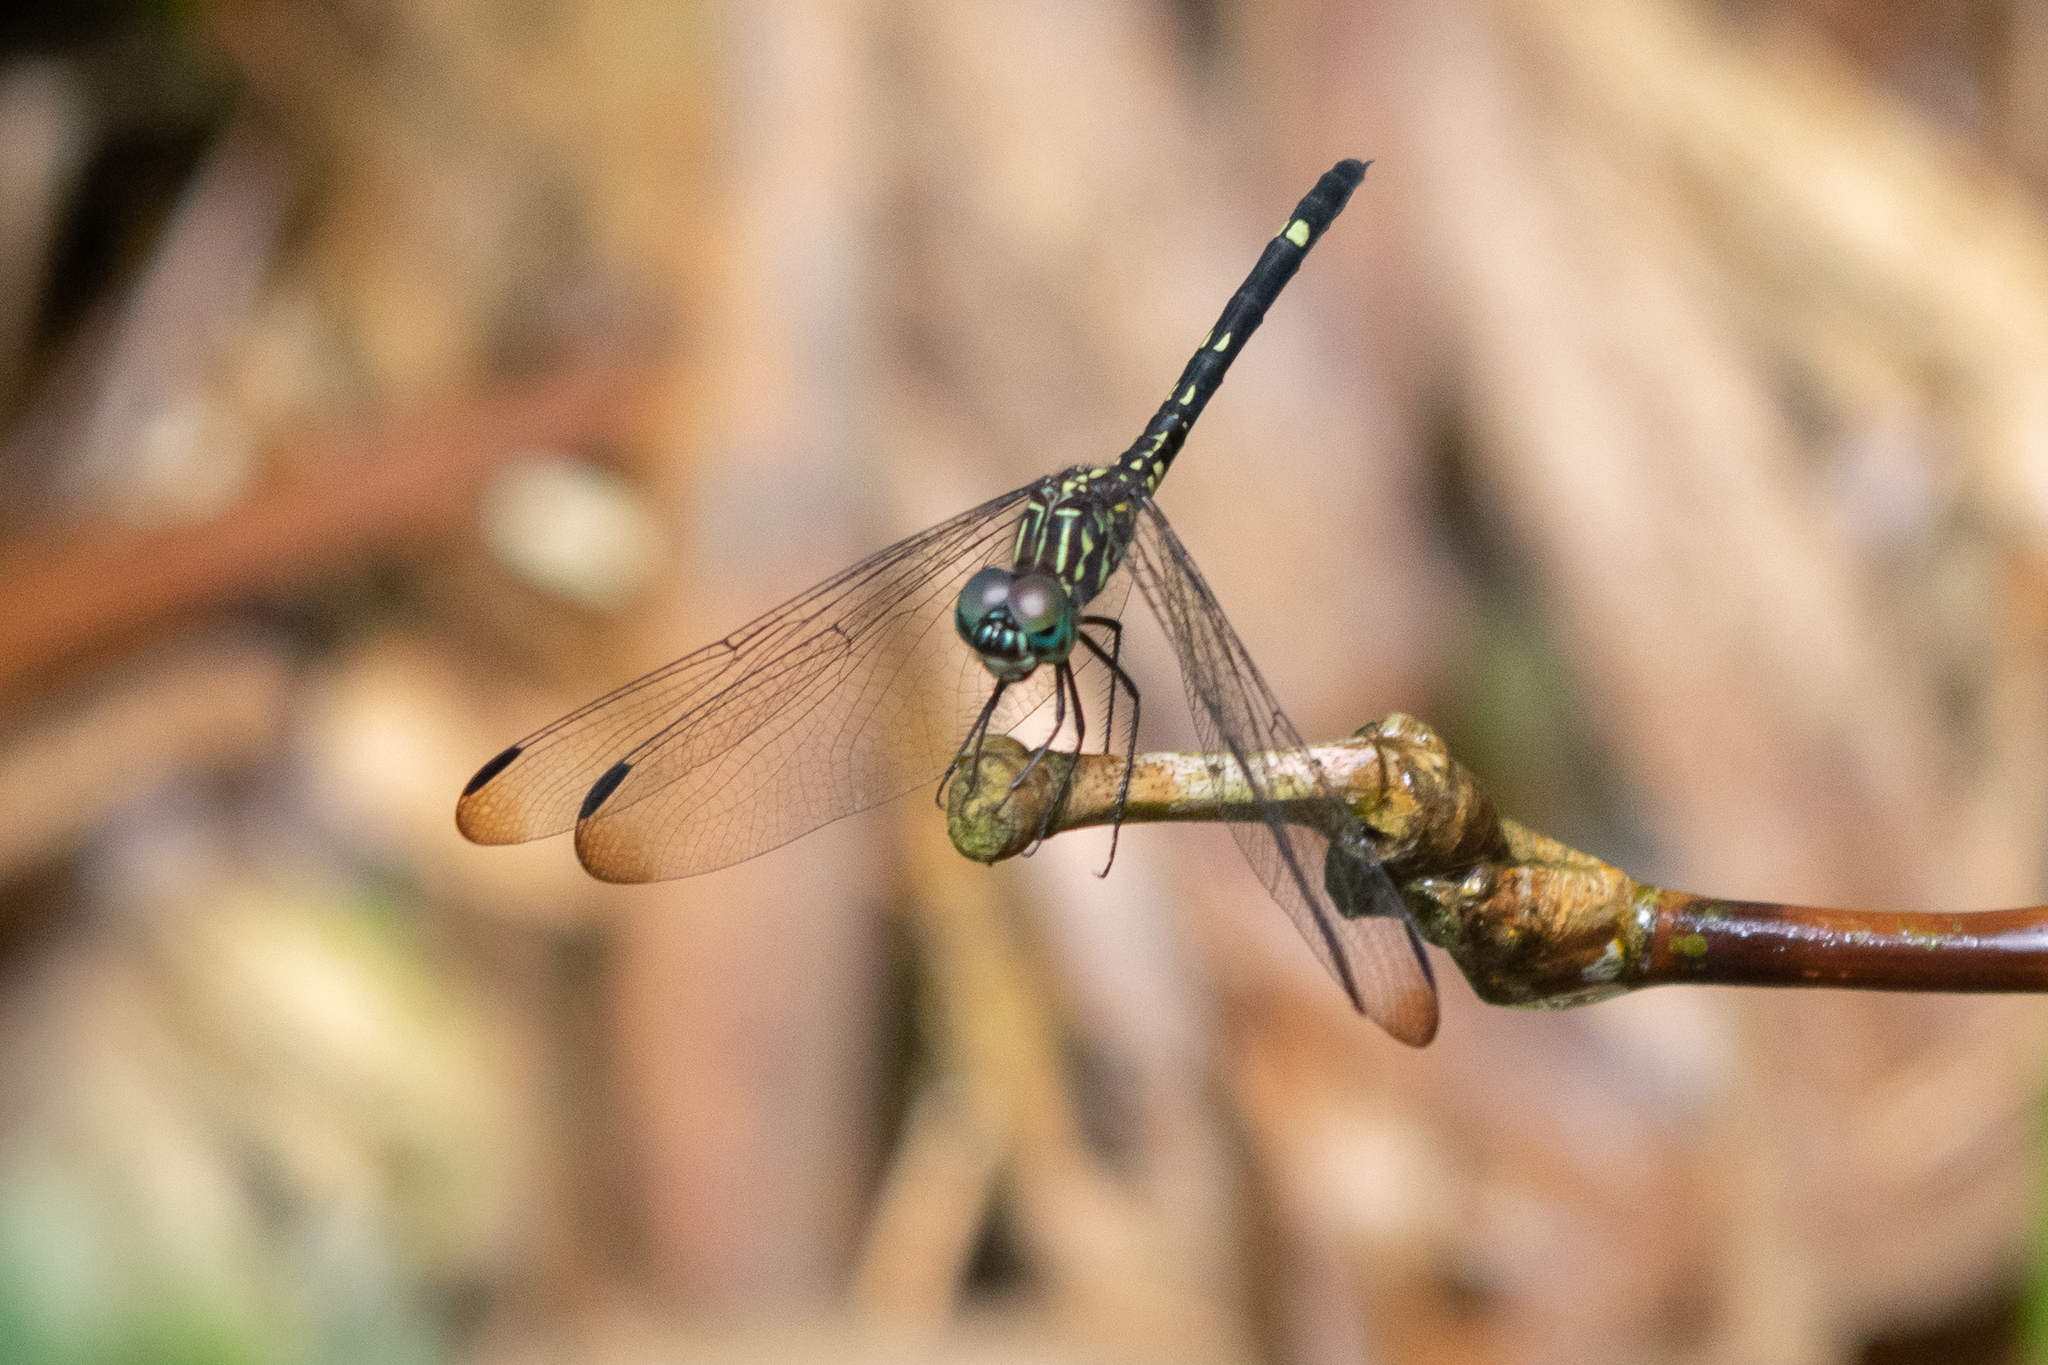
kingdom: Animalia
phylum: Arthropoda
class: Insecta
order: Odonata
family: Libellulidae
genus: Dythemis
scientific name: Dythemis nigra
